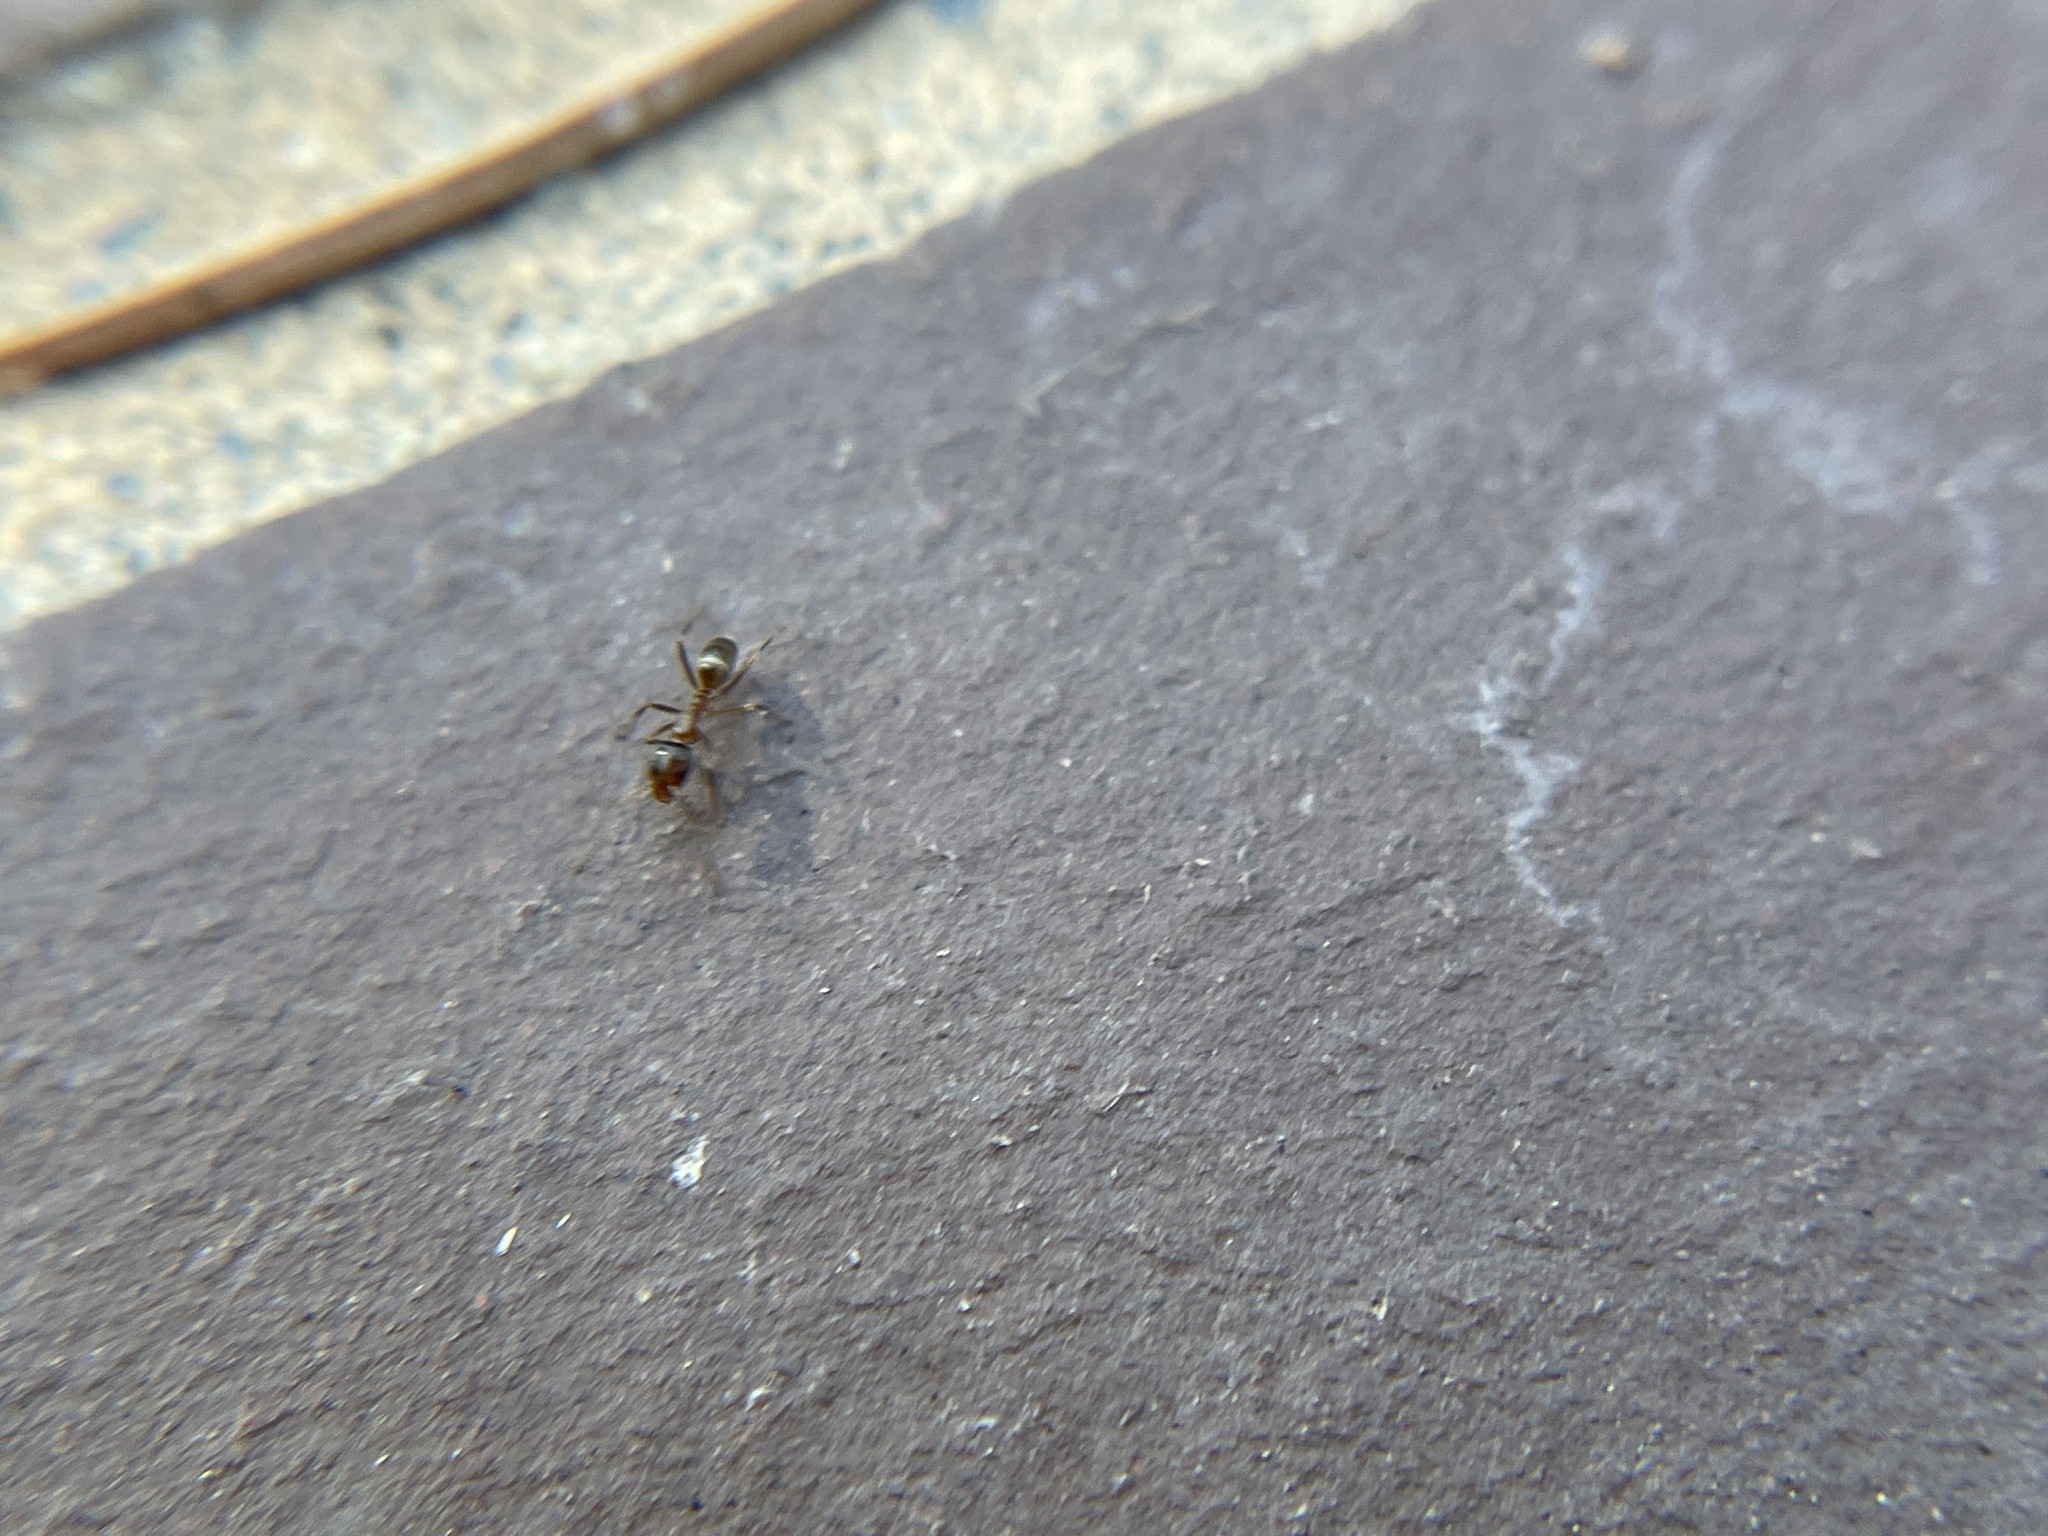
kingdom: Animalia
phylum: Arthropoda
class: Insecta
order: Hymenoptera
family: Formicidae
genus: Linepithema
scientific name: Linepithema humile
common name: Argentine ant
